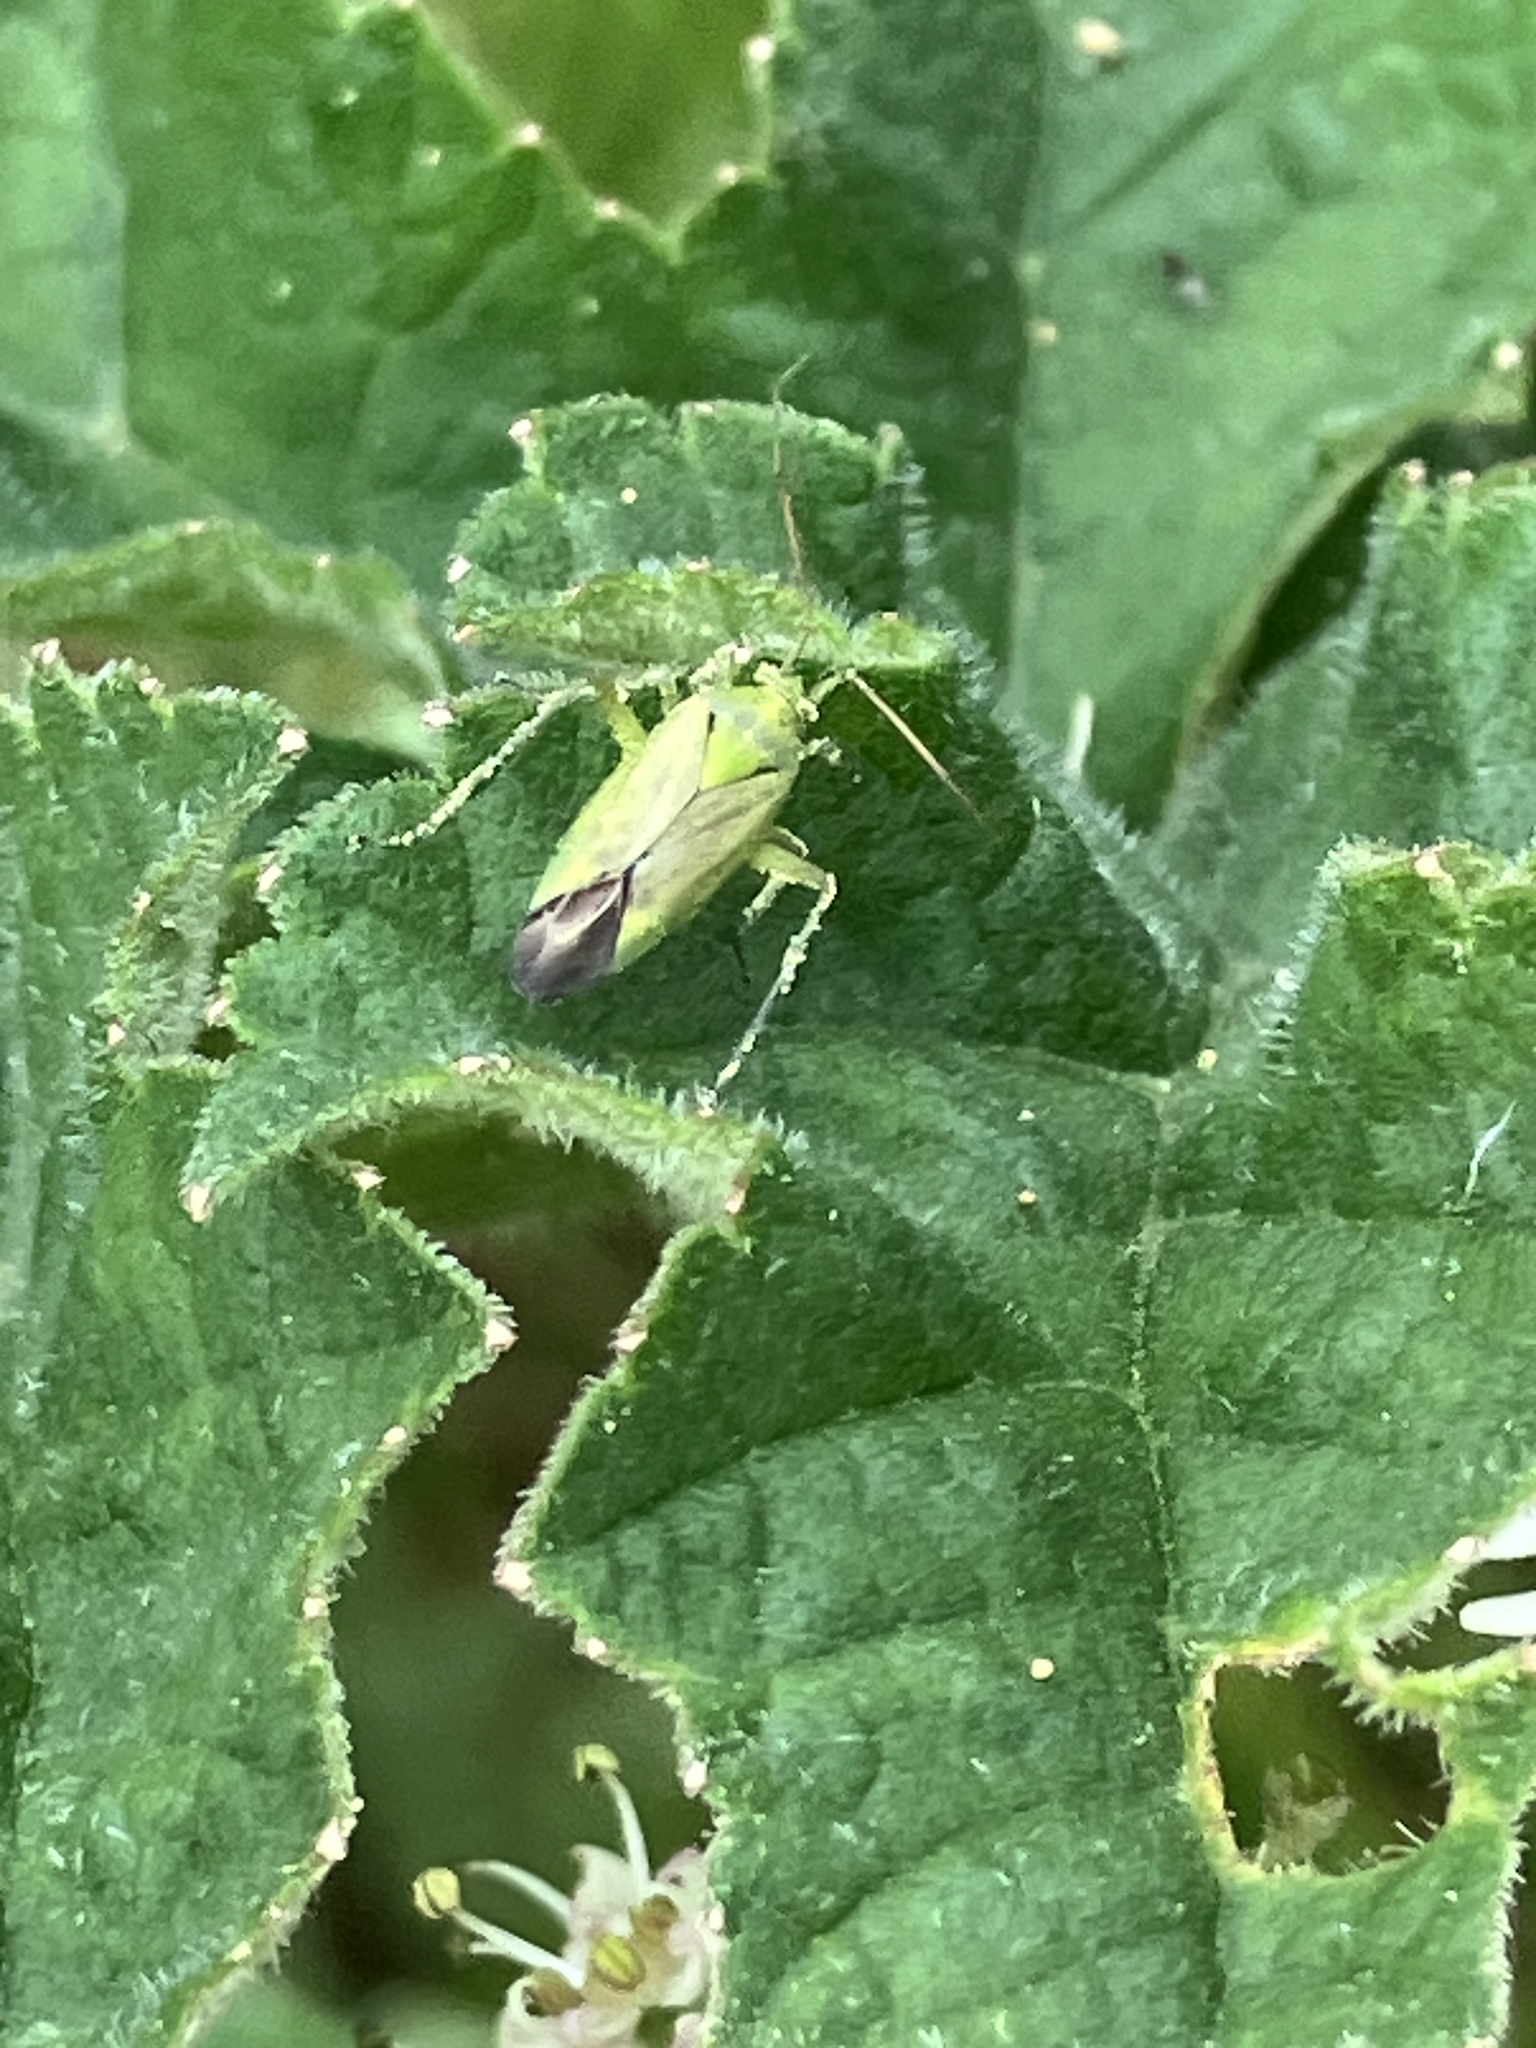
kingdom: Animalia
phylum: Arthropoda
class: Insecta
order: Hemiptera
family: Miridae
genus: Closterotomus
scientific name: Closterotomus norvegicus
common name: Plant bug
